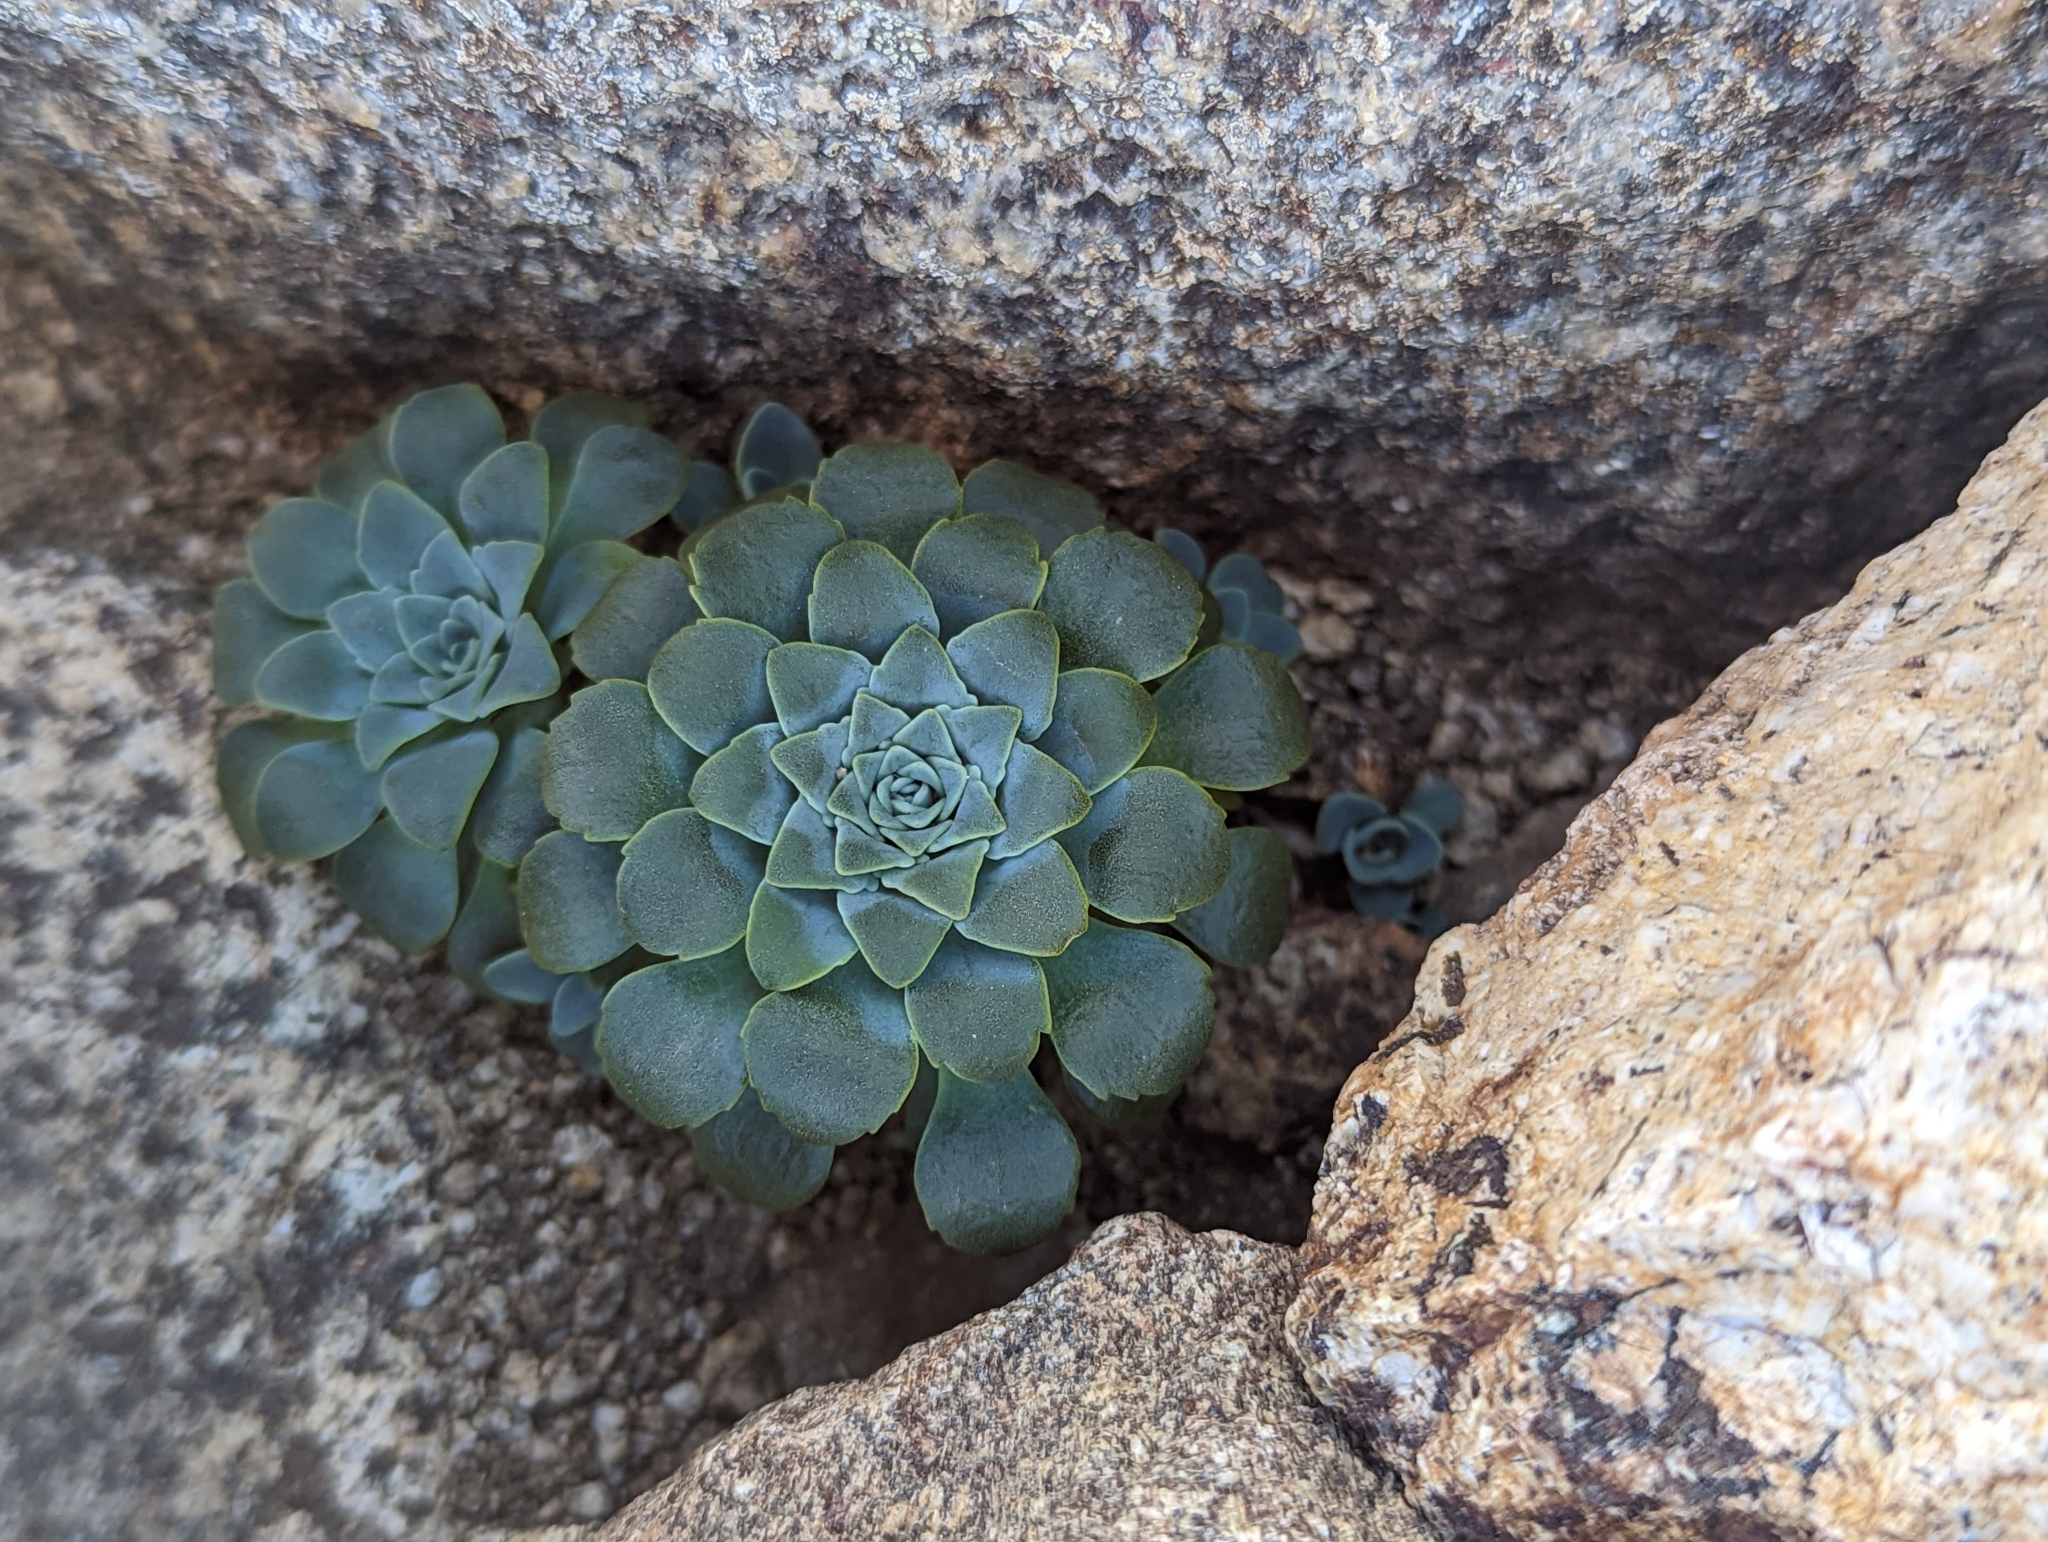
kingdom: Plantae
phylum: Tracheophyta
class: Magnoliopsida
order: Asterales
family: Calyceraceae
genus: Moschopsis
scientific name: Moschopsis rosulata
